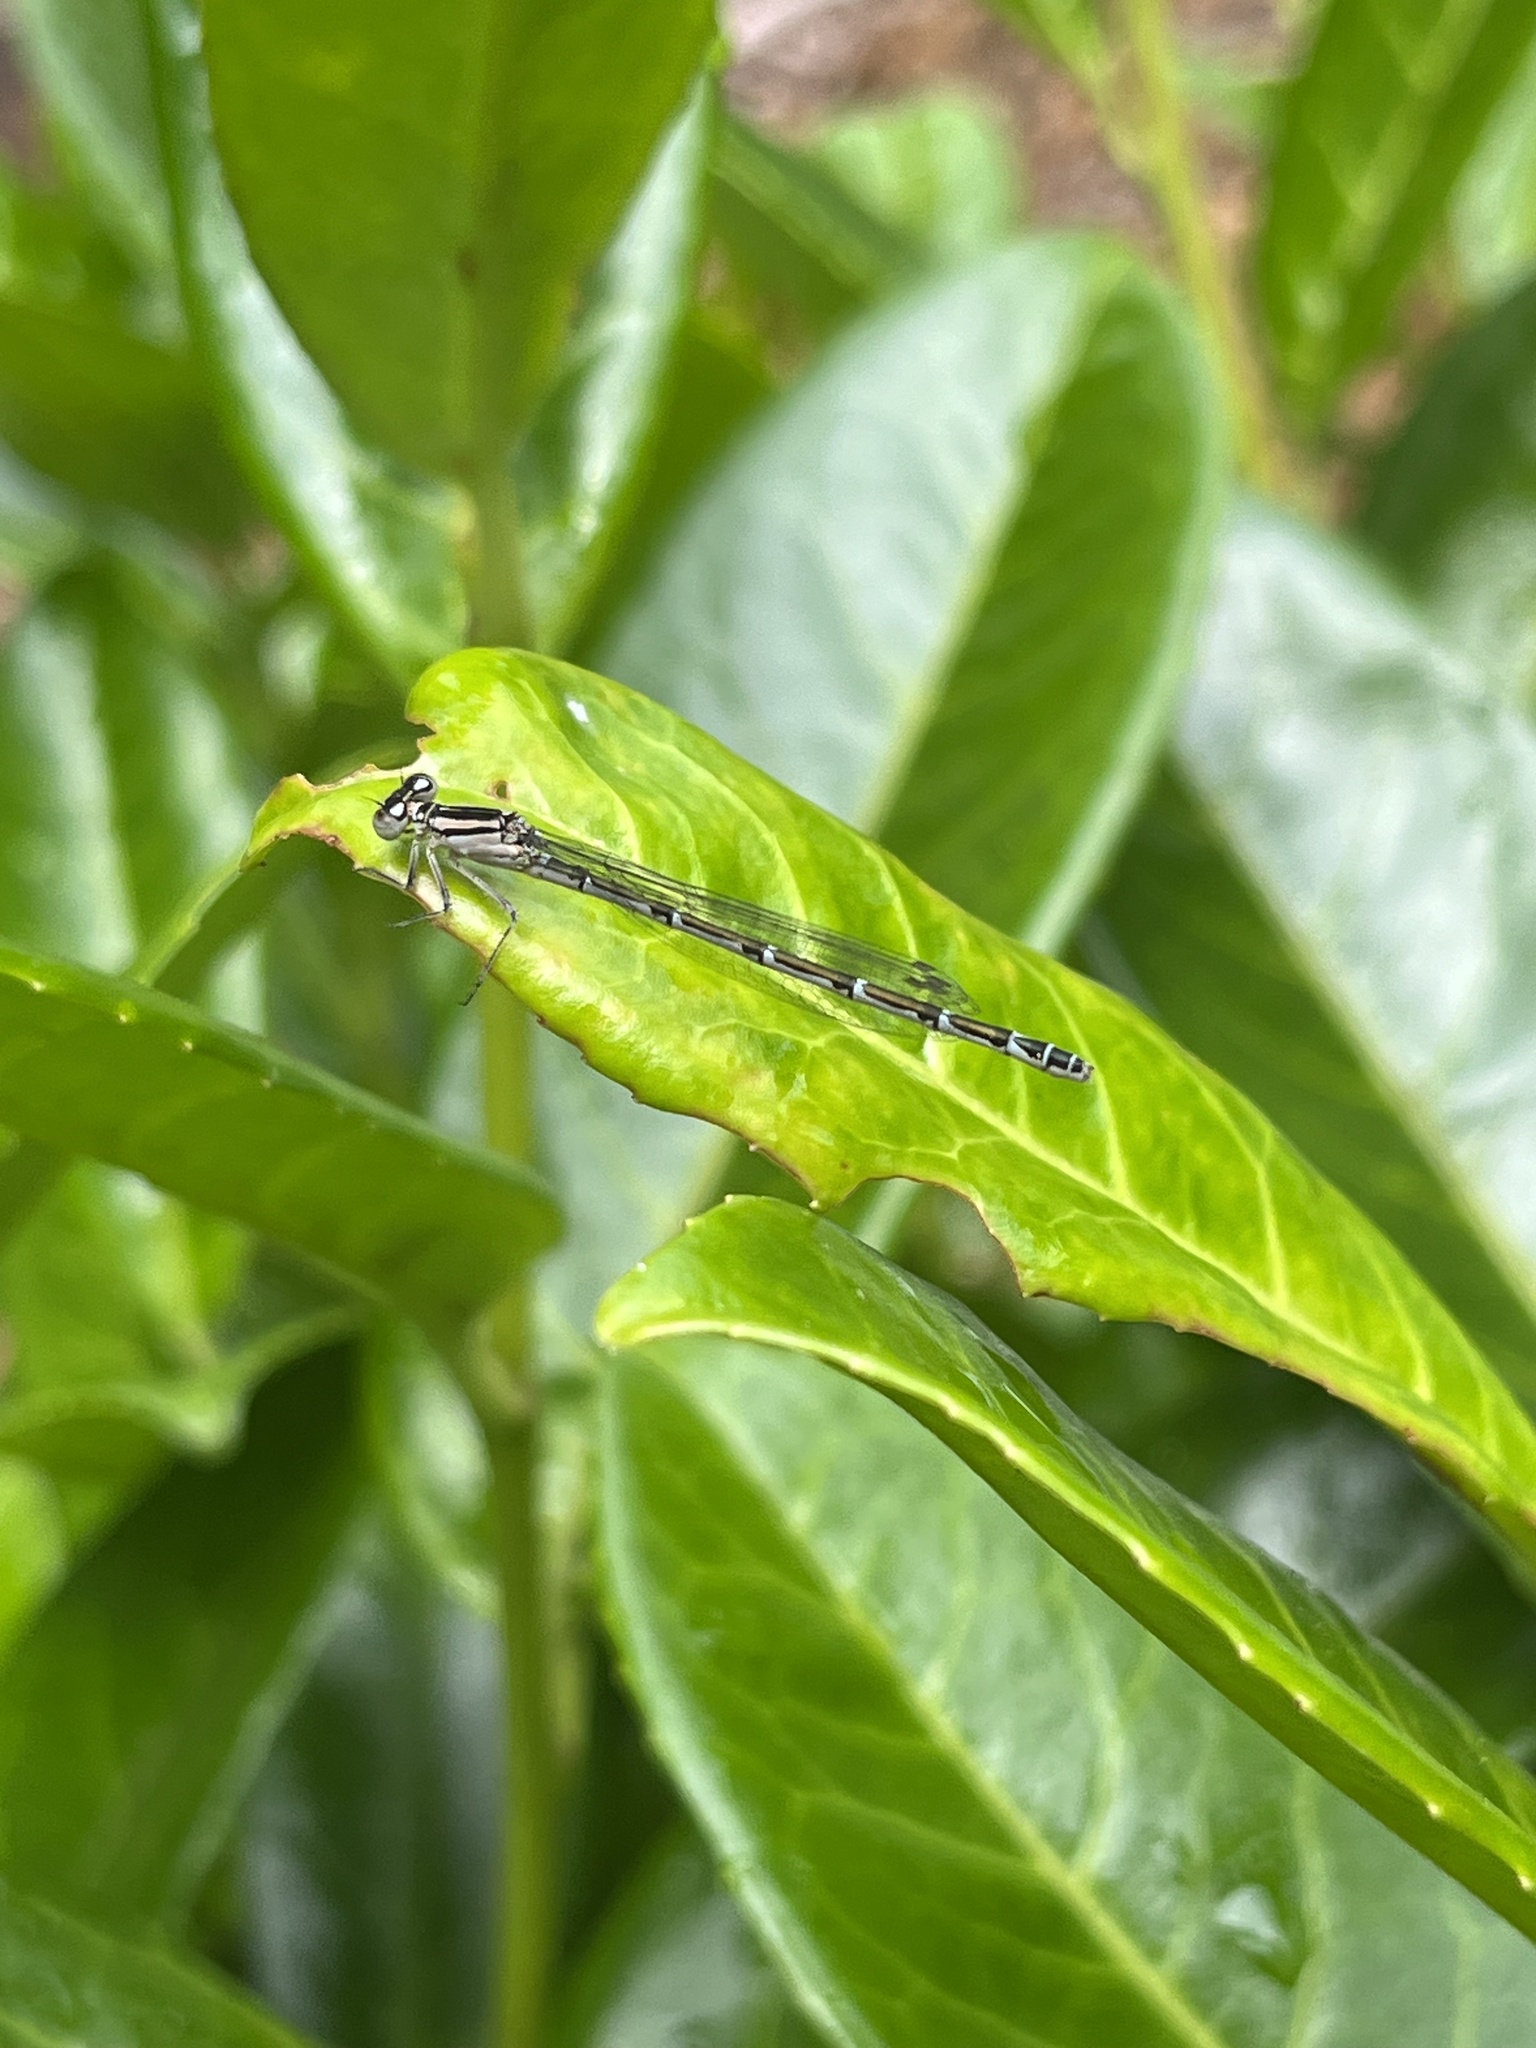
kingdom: Animalia
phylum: Arthropoda
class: Insecta
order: Odonata
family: Coenagrionidae
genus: Enallagma
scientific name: Enallagma cyathigerum
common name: Common blue damselfly
